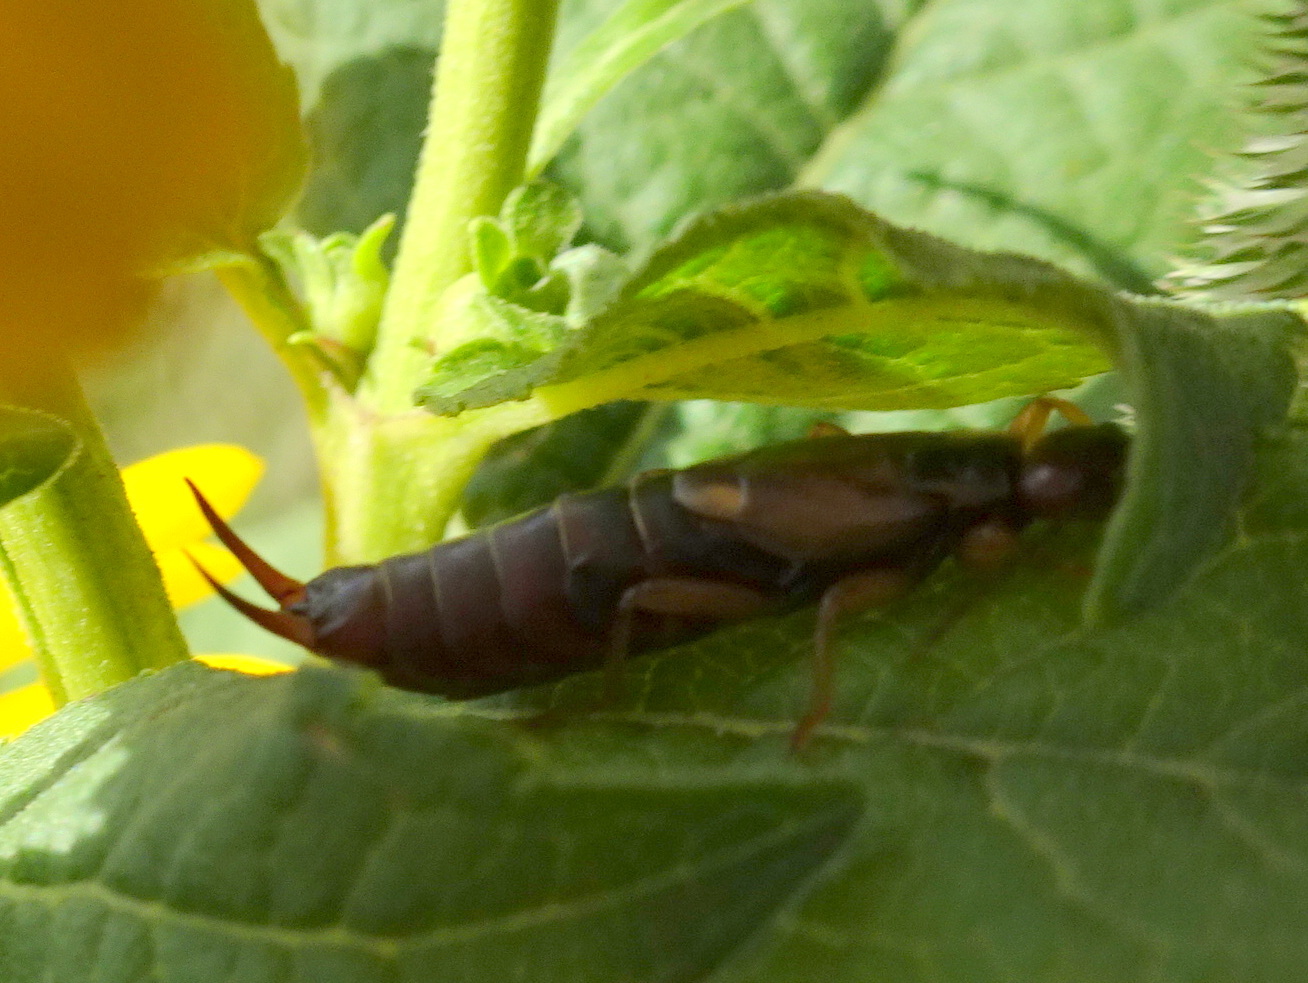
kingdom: Animalia
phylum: Arthropoda
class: Insecta
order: Dermaptera
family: Forficulidae
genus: Forficula
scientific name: Forficula
